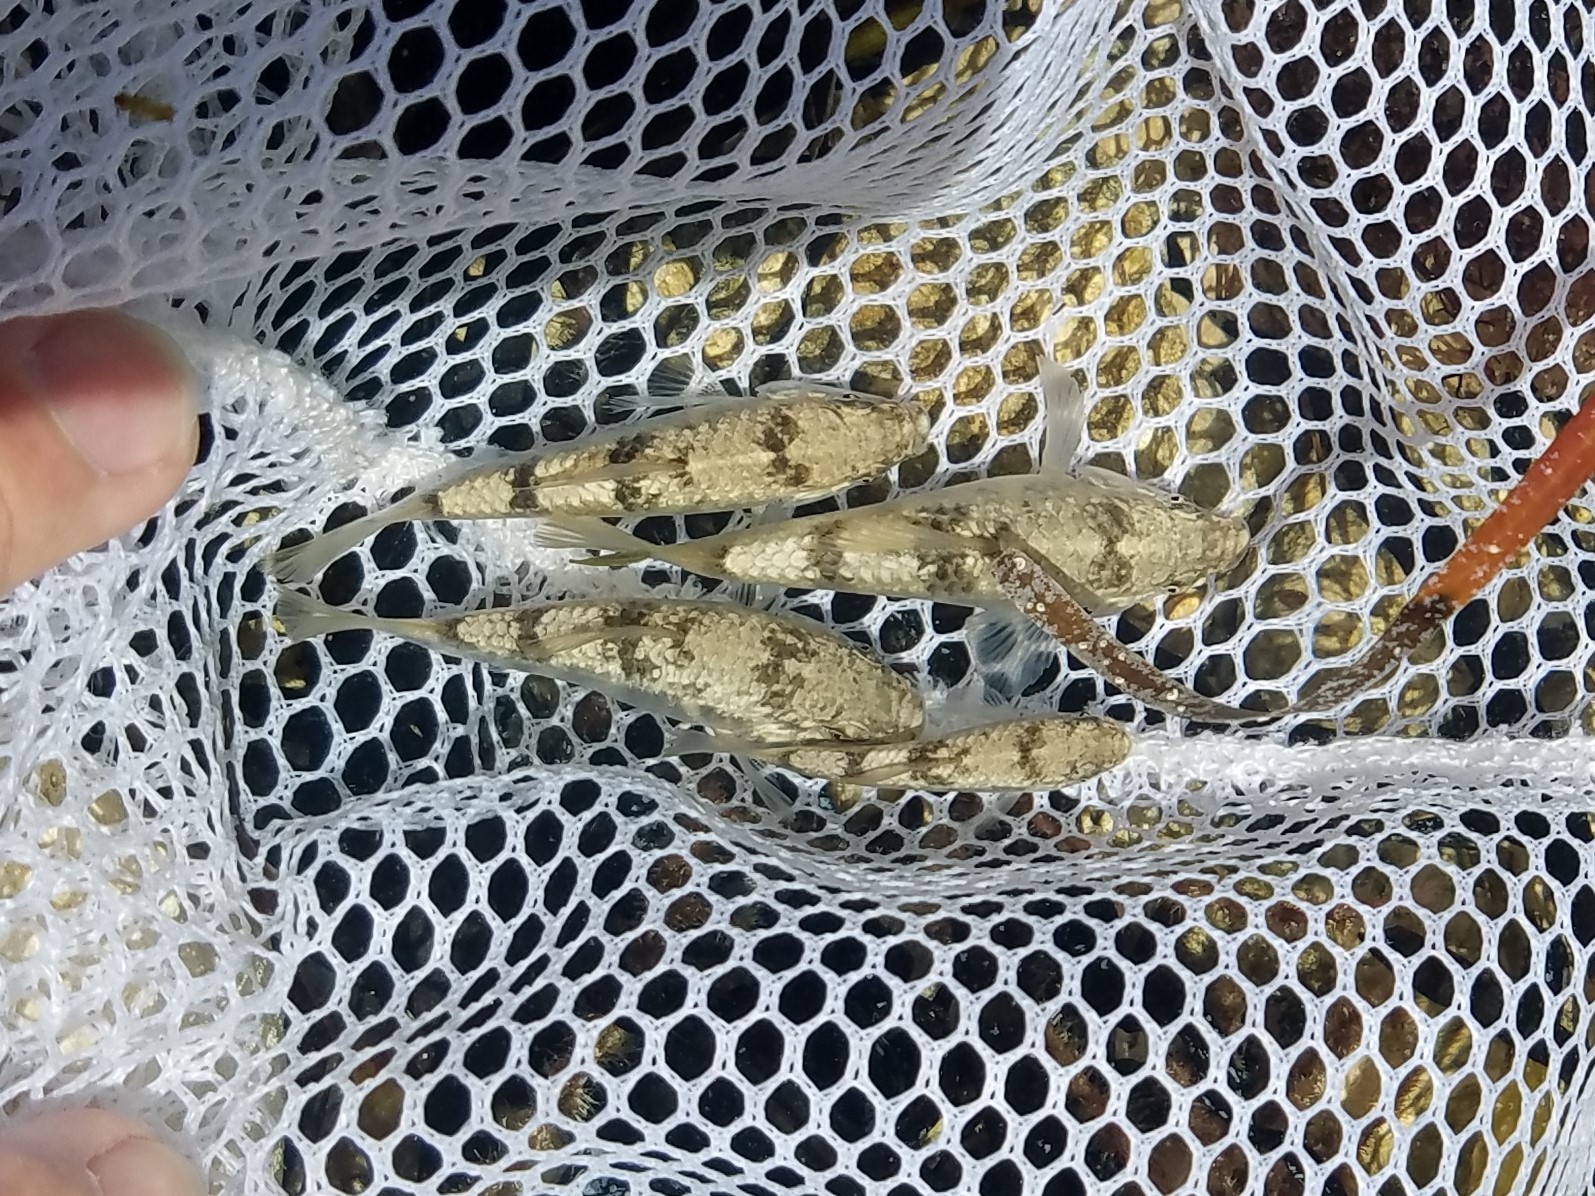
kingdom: Animalia
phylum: Chordata
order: Cyprinodontiformes
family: Cyprinodontidae
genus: Floridichthys
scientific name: Floridichthys carpio
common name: Goldspotted killifish
